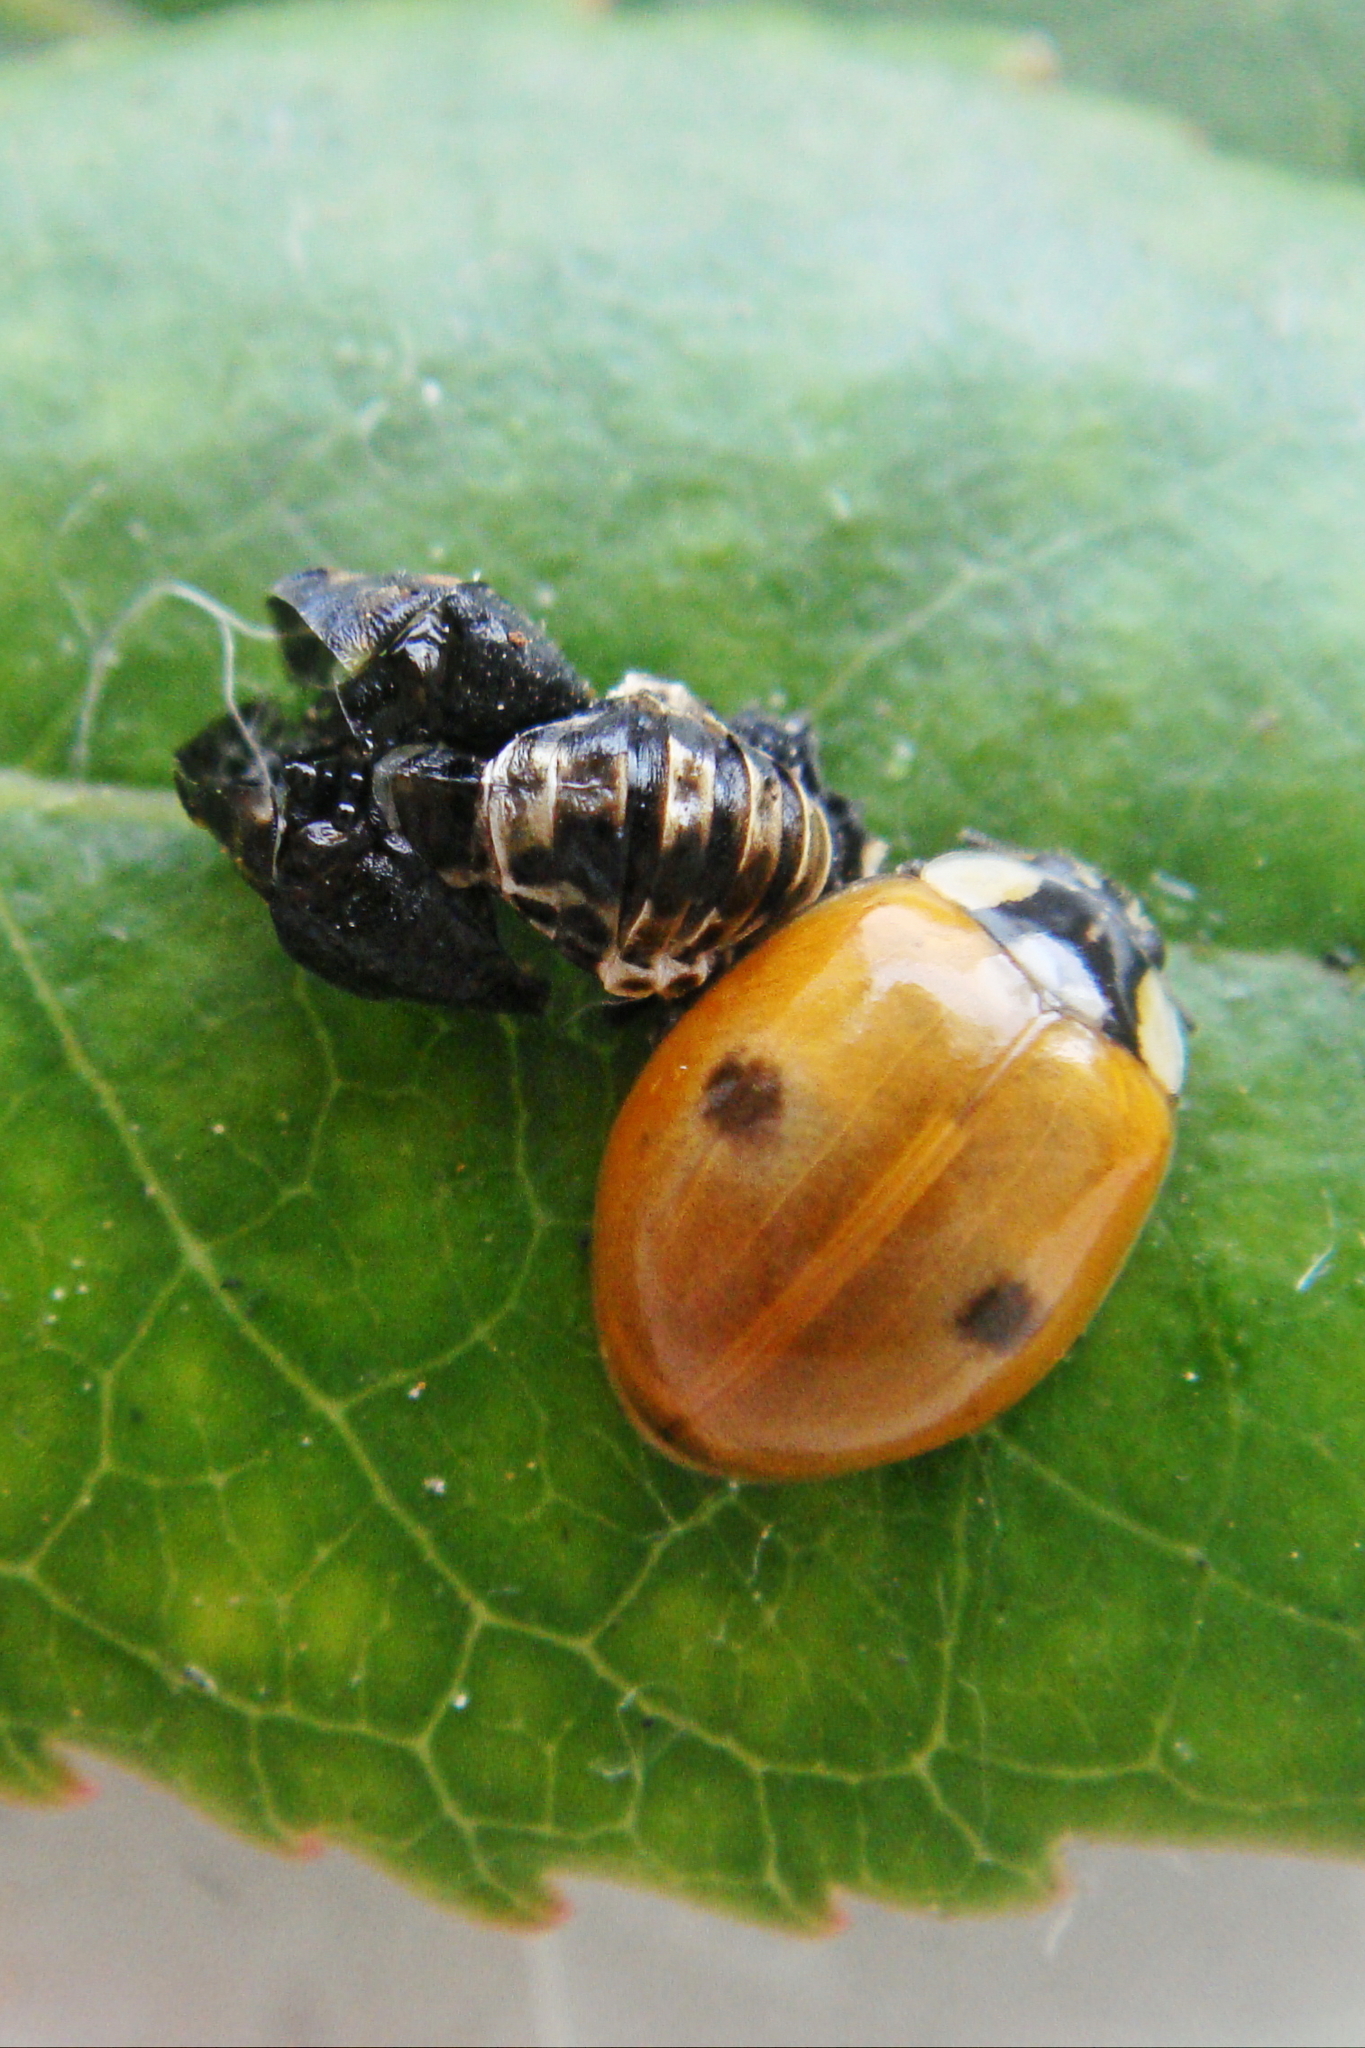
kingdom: Animalia
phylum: Arthropoda
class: Insecta
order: Coleoptera
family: Coccinellidae
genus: Adalia
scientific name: Adalia bipunctata
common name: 2-spot ladybird
